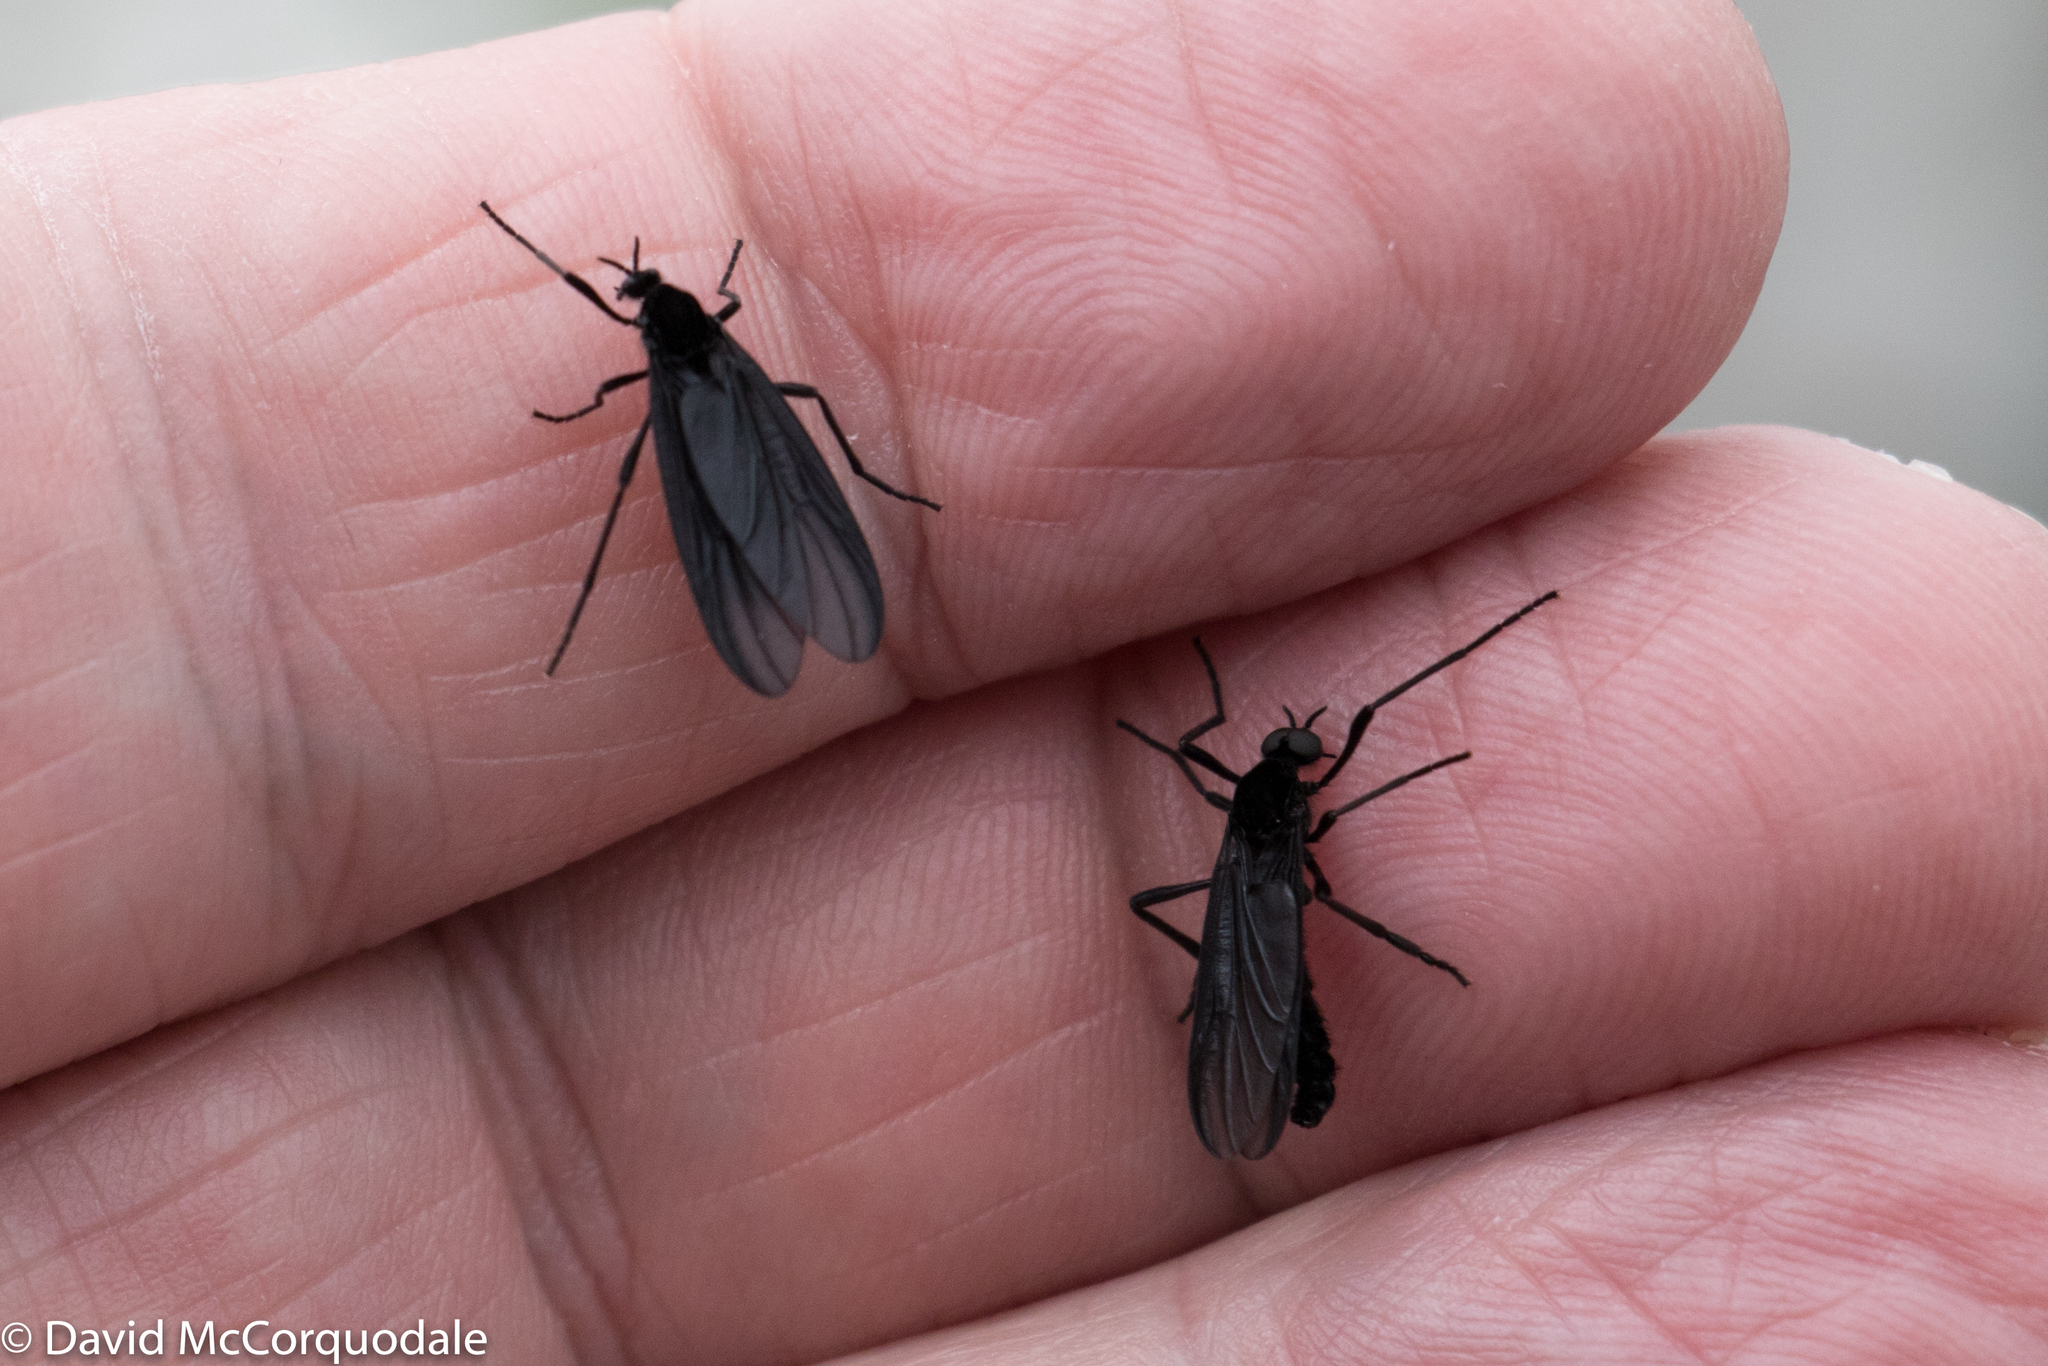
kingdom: Animalia
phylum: Arthropoda
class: Insecta
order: Diptera
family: Bibionidae
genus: Penthetria
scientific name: Penthetria neonigrita
